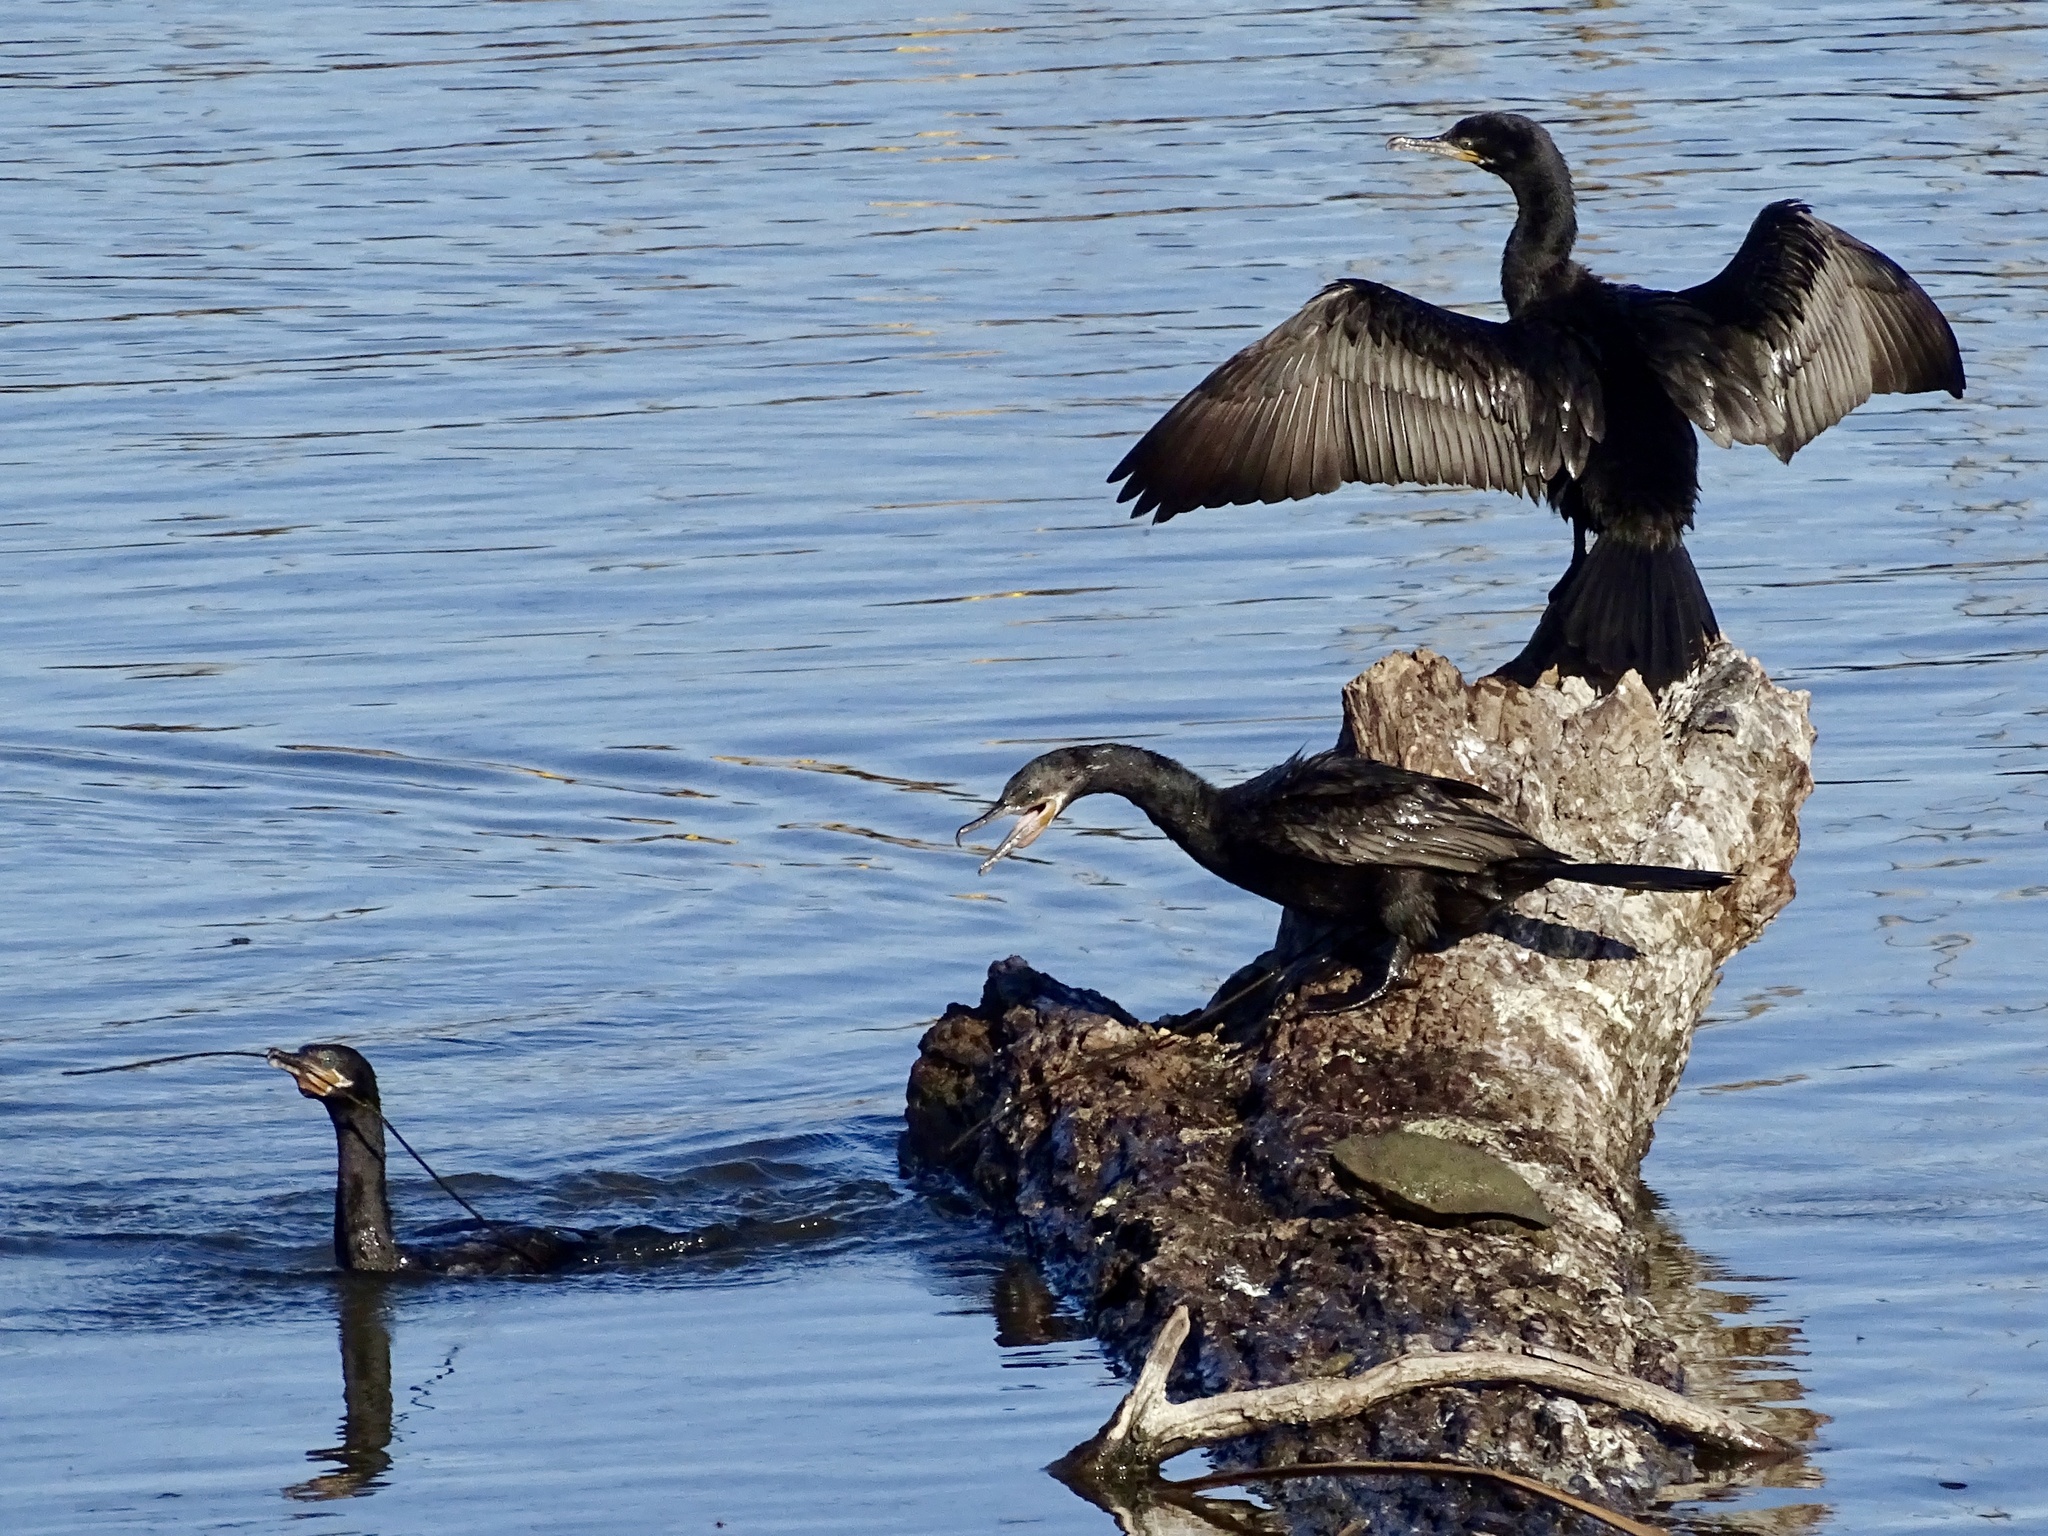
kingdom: Animalia
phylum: Chordata
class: Aves
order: Suliformes
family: Phalacrocoracidae
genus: Phalacrocorax
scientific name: Phalacrocorax brasilianus
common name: Neotropic cormorant
